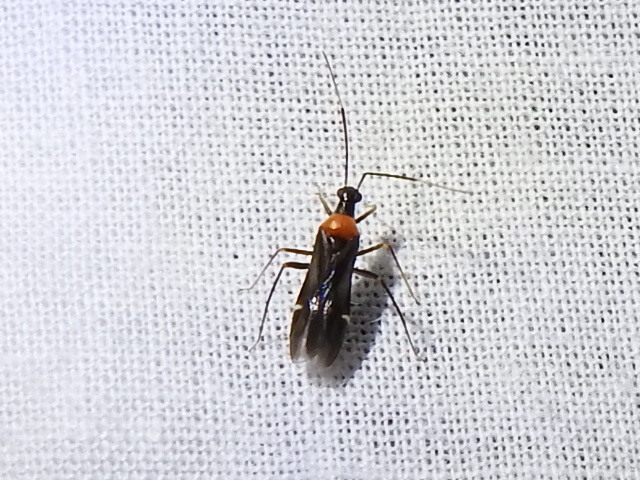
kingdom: Animalia
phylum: Arthropoda
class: Insecta
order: Hemiptera
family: Miridae
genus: Pseudoxenetus
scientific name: Pseudoxenetus regalis
